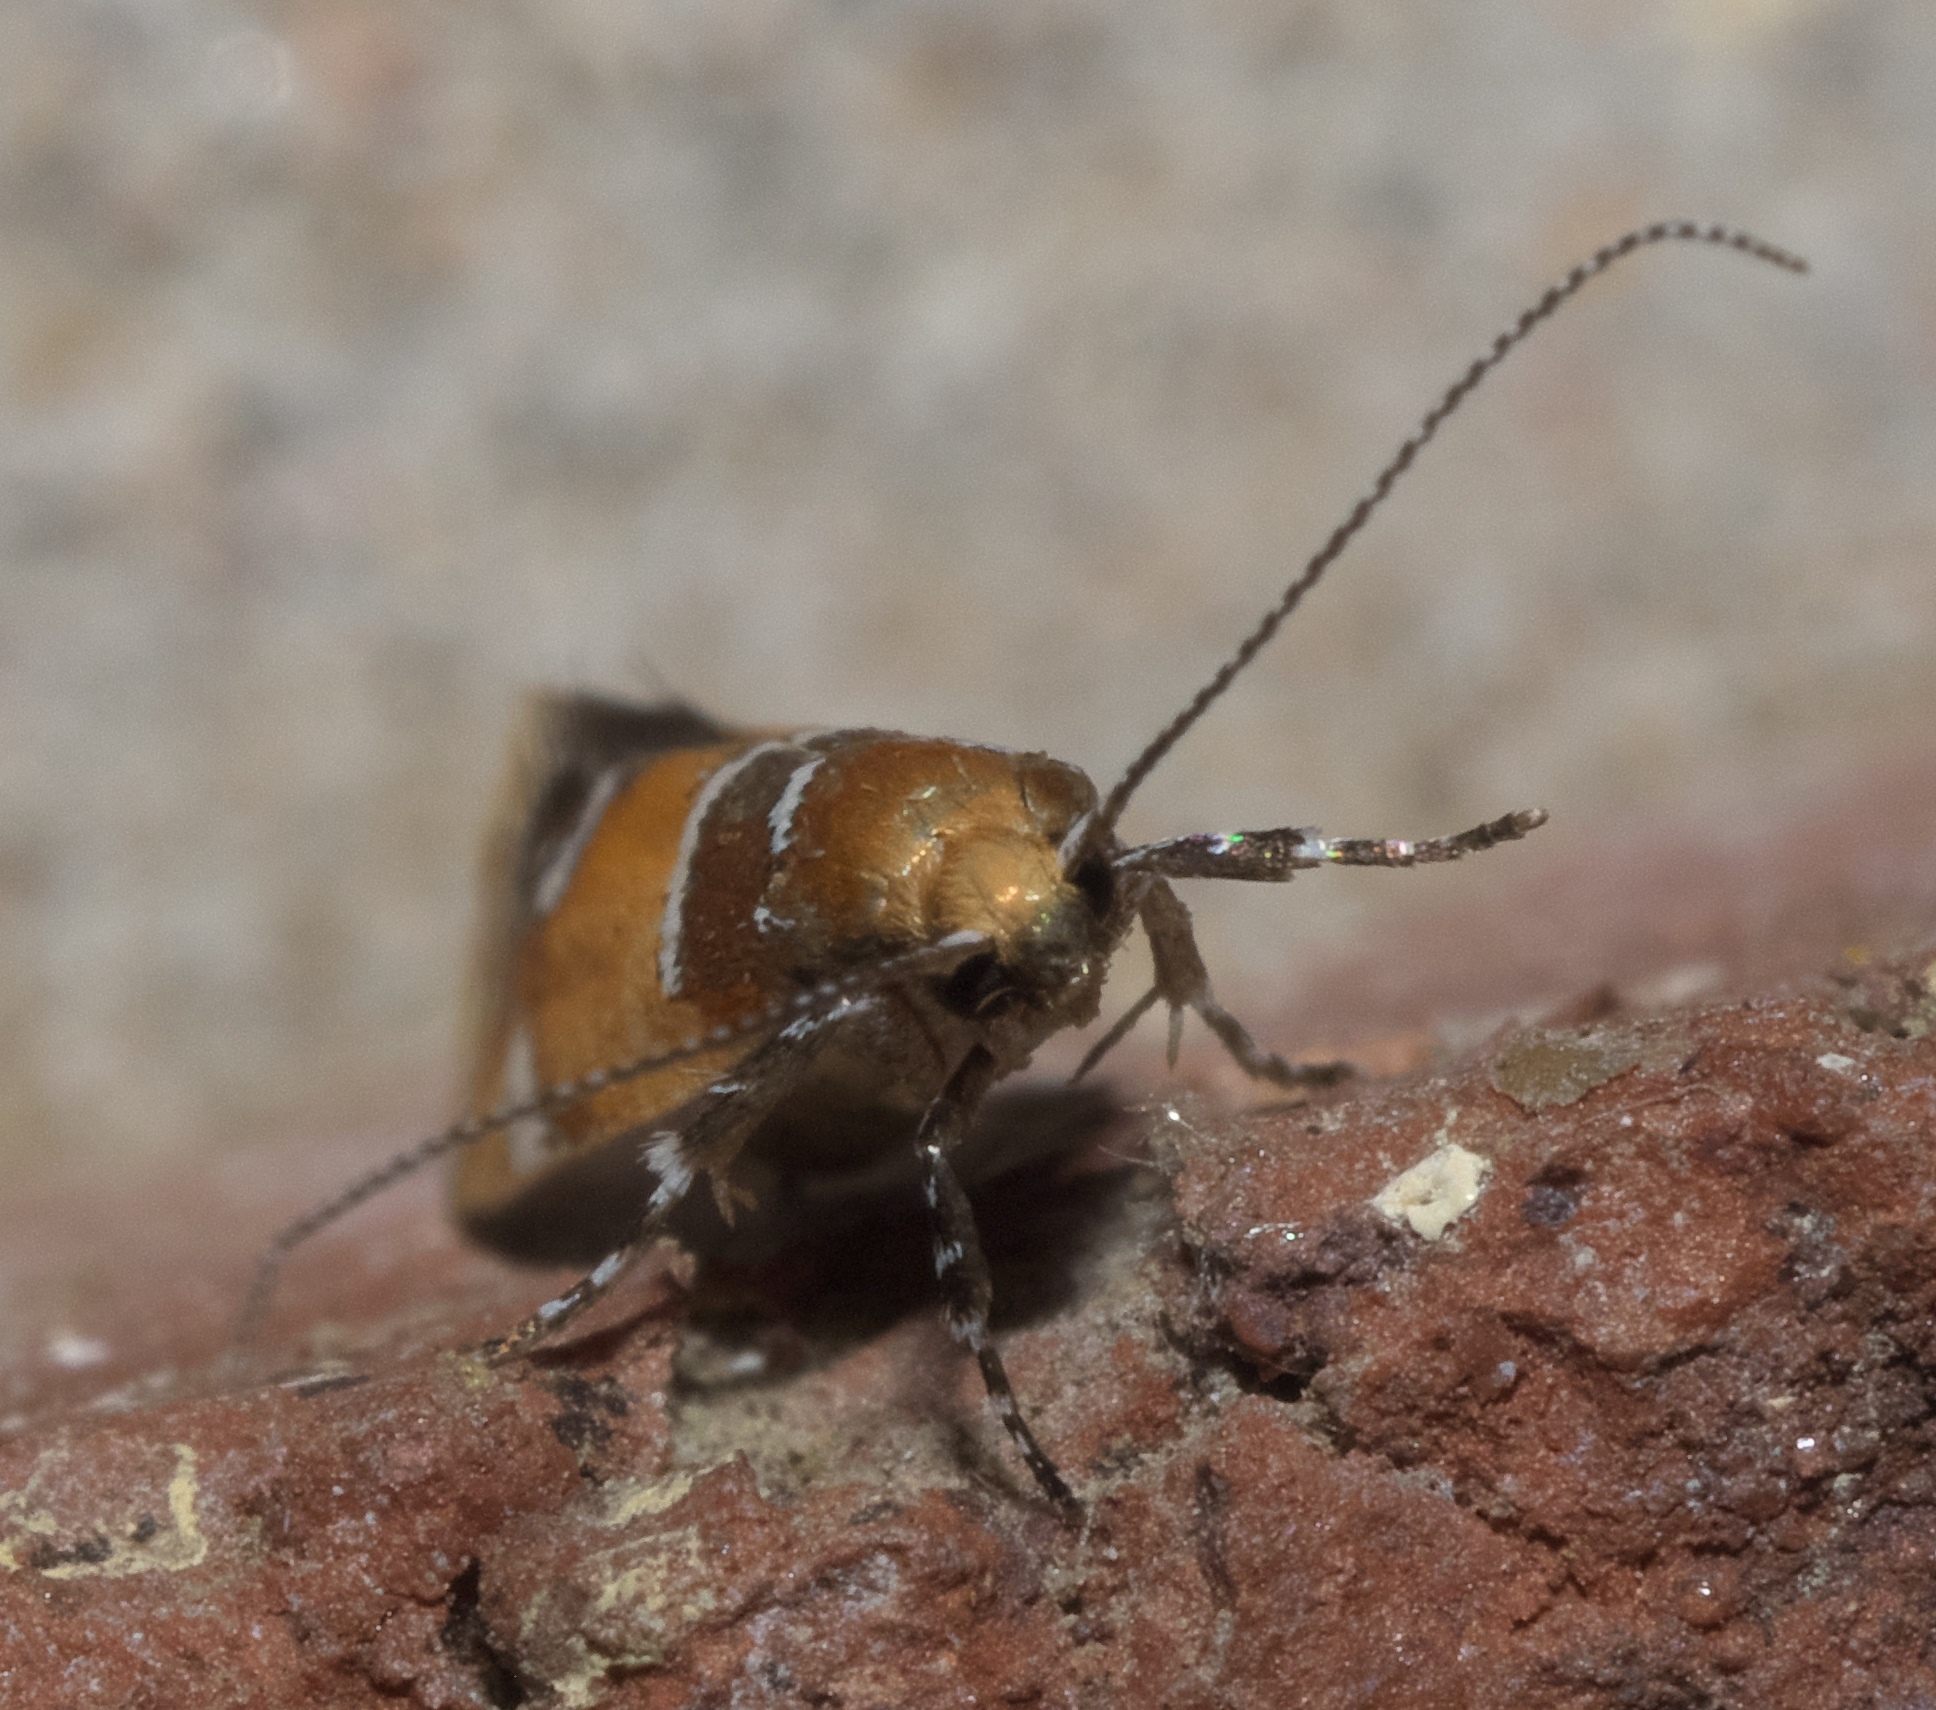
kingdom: Animalia
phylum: Arthropoda
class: Insecta
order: Lepidoptera
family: Oecophoridae
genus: Callima
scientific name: Callima argenticinctella
